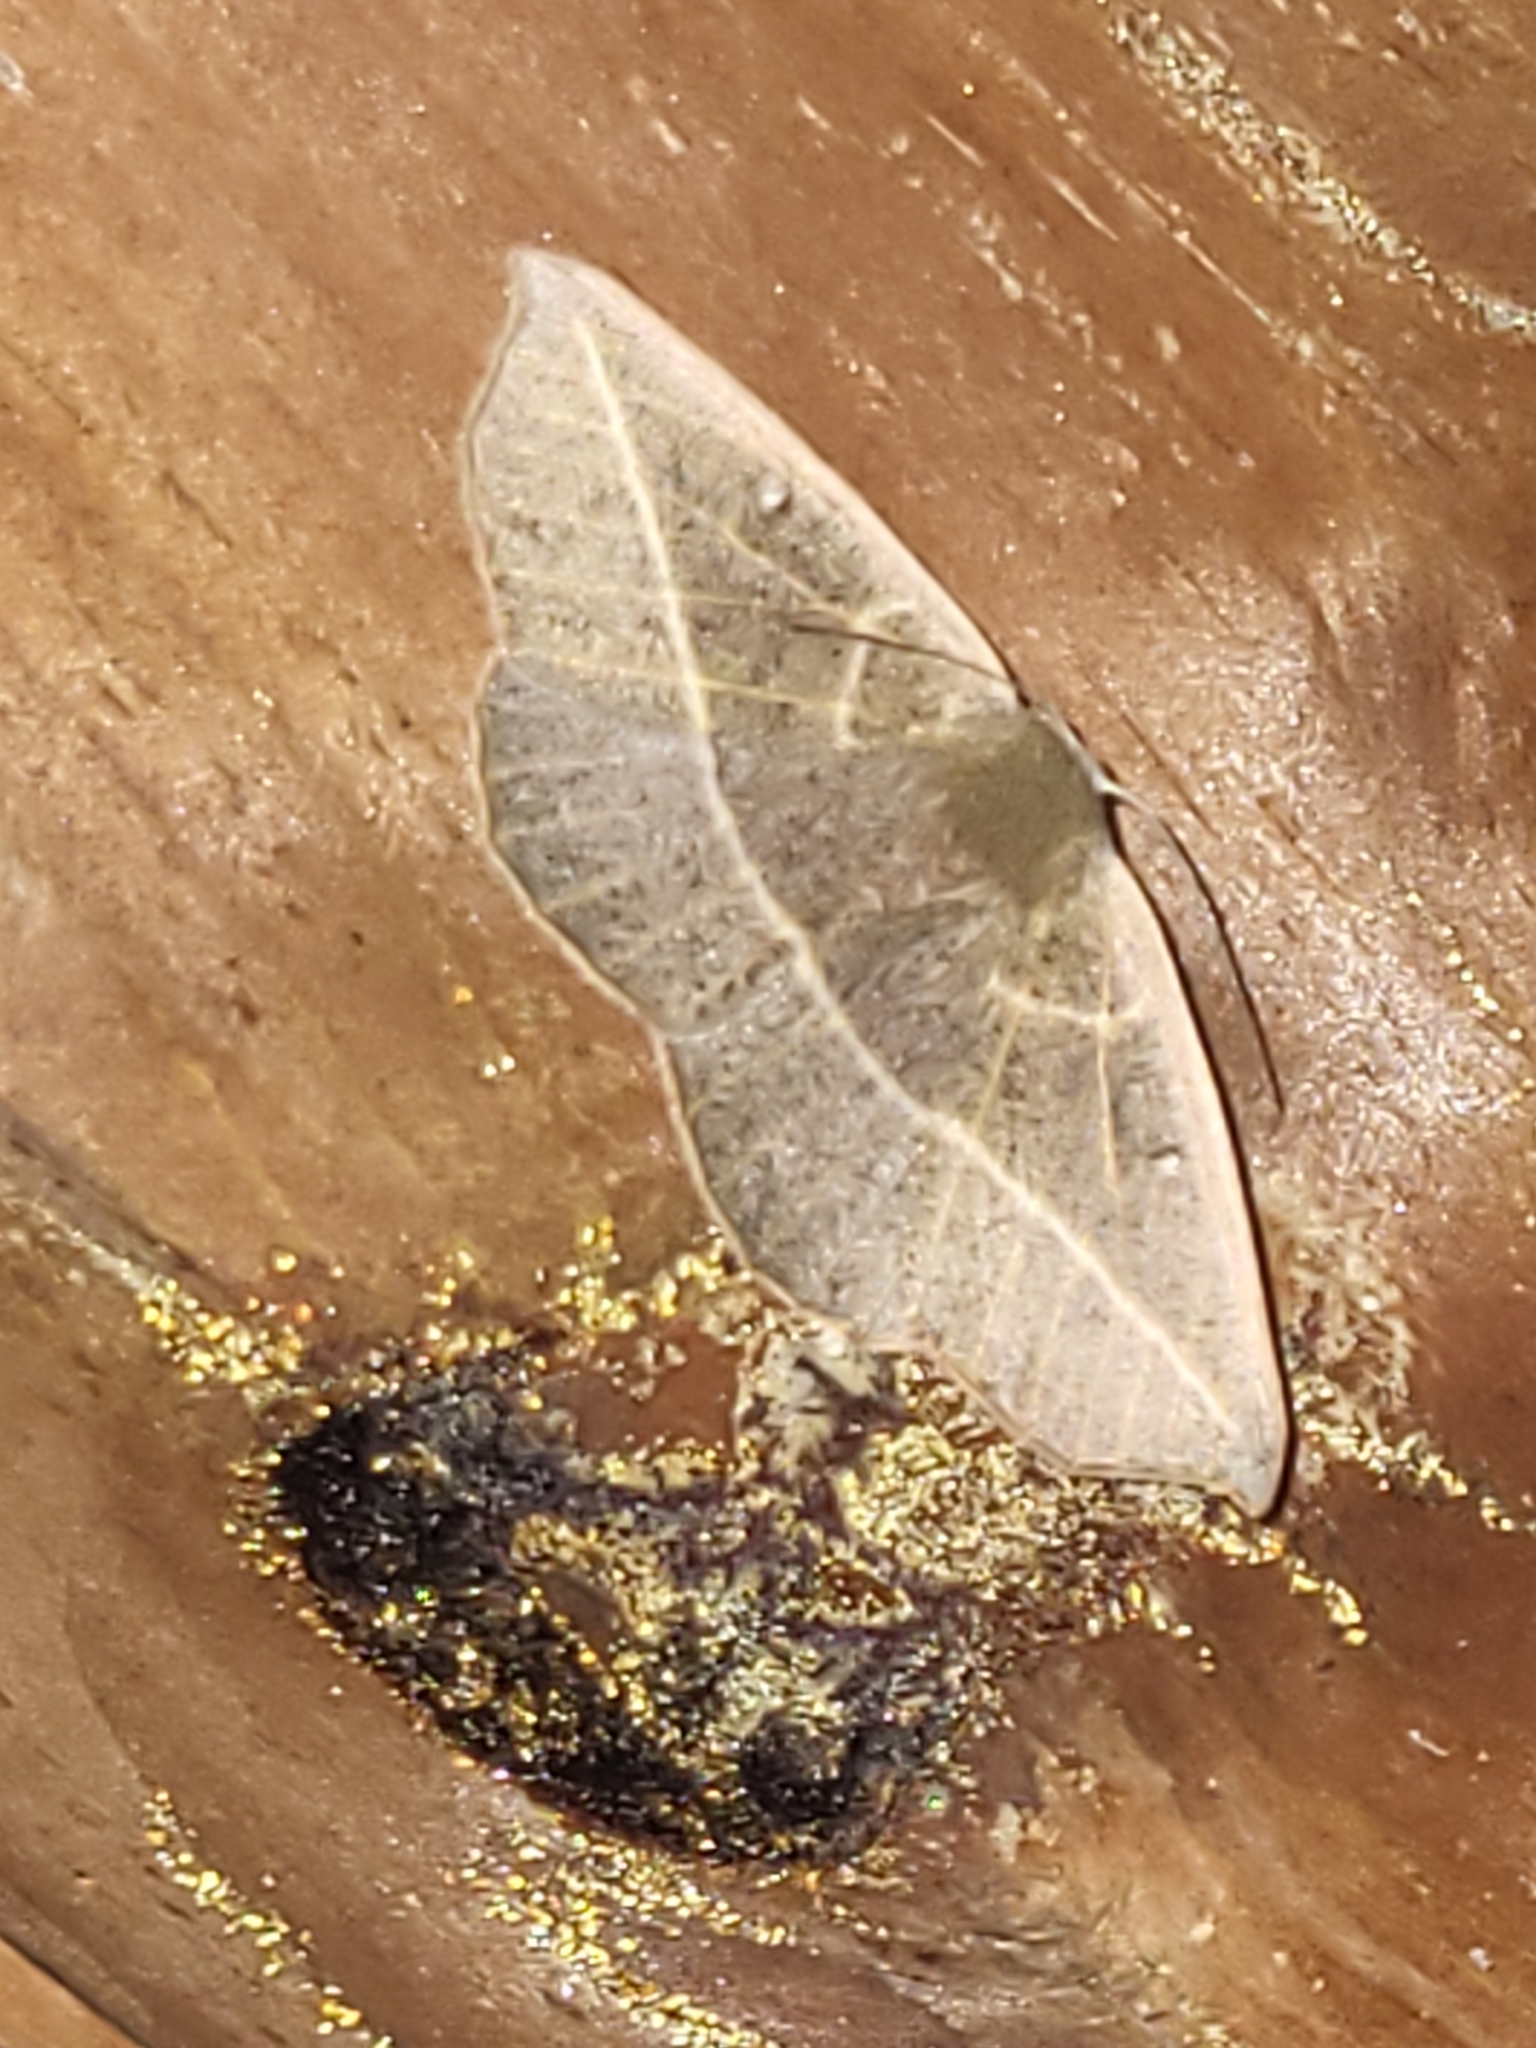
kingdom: Animalia
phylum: Arthropoda
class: Insecta
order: Lepidoptera
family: Geometridae
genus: Psilocerea
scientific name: Psilocerea monochroma
